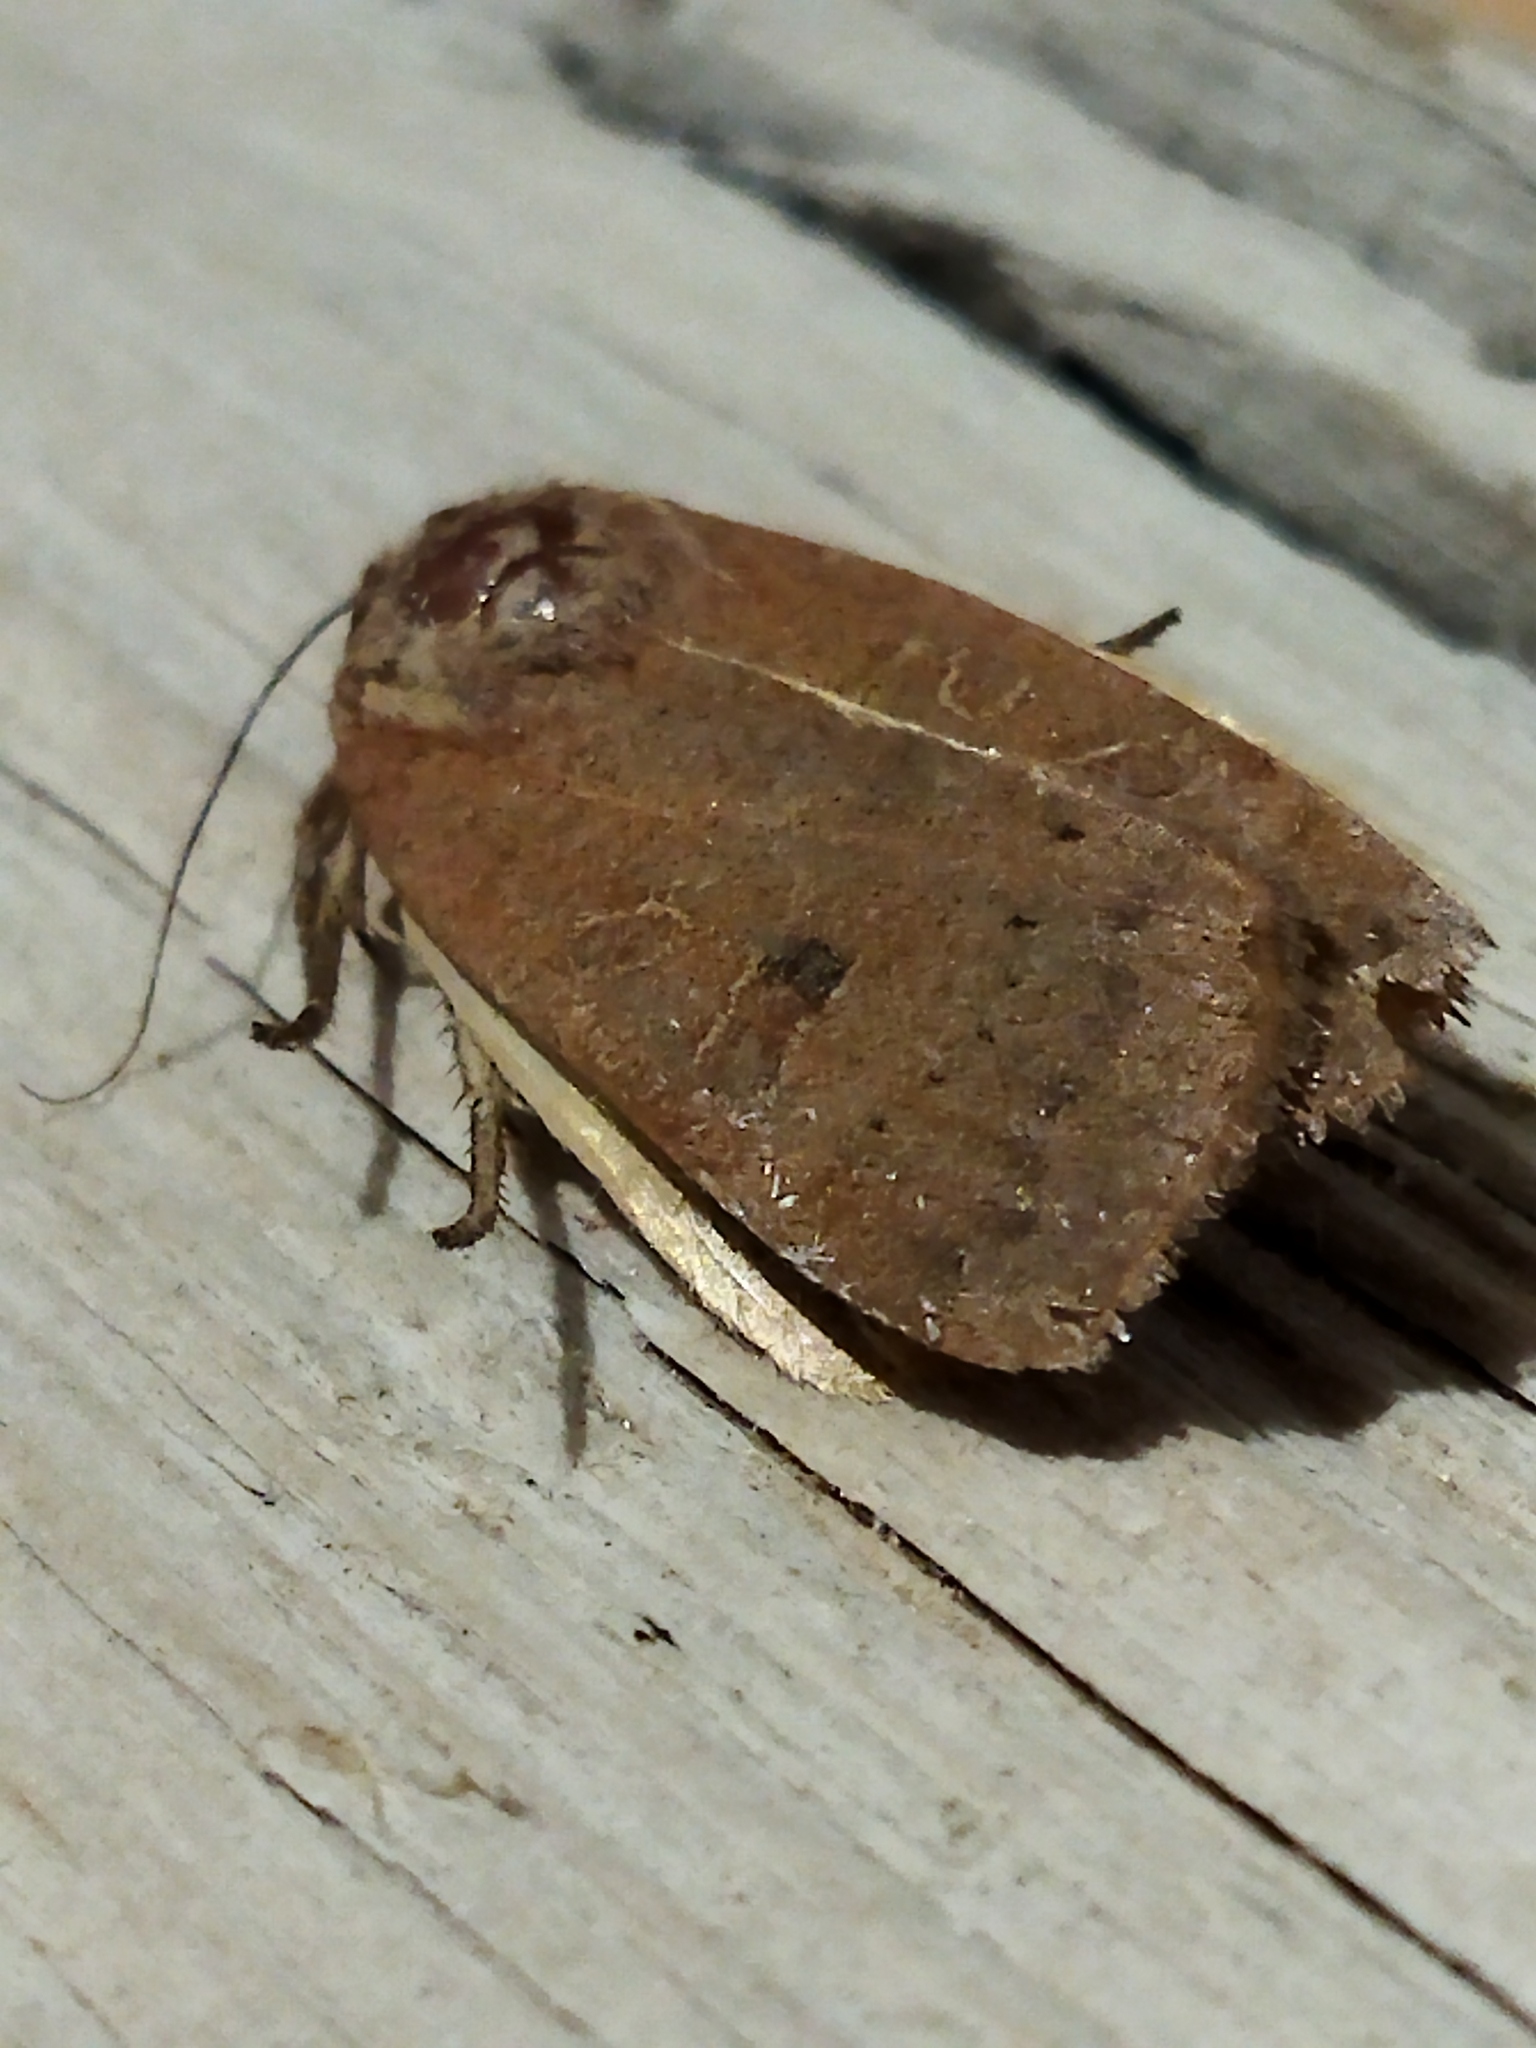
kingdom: Animalia
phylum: Arthropoda
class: Insecta
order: Lepidoptera
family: Noctuidae
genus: Noctua
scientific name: Noctua comes
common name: Lesser yellow underwing
